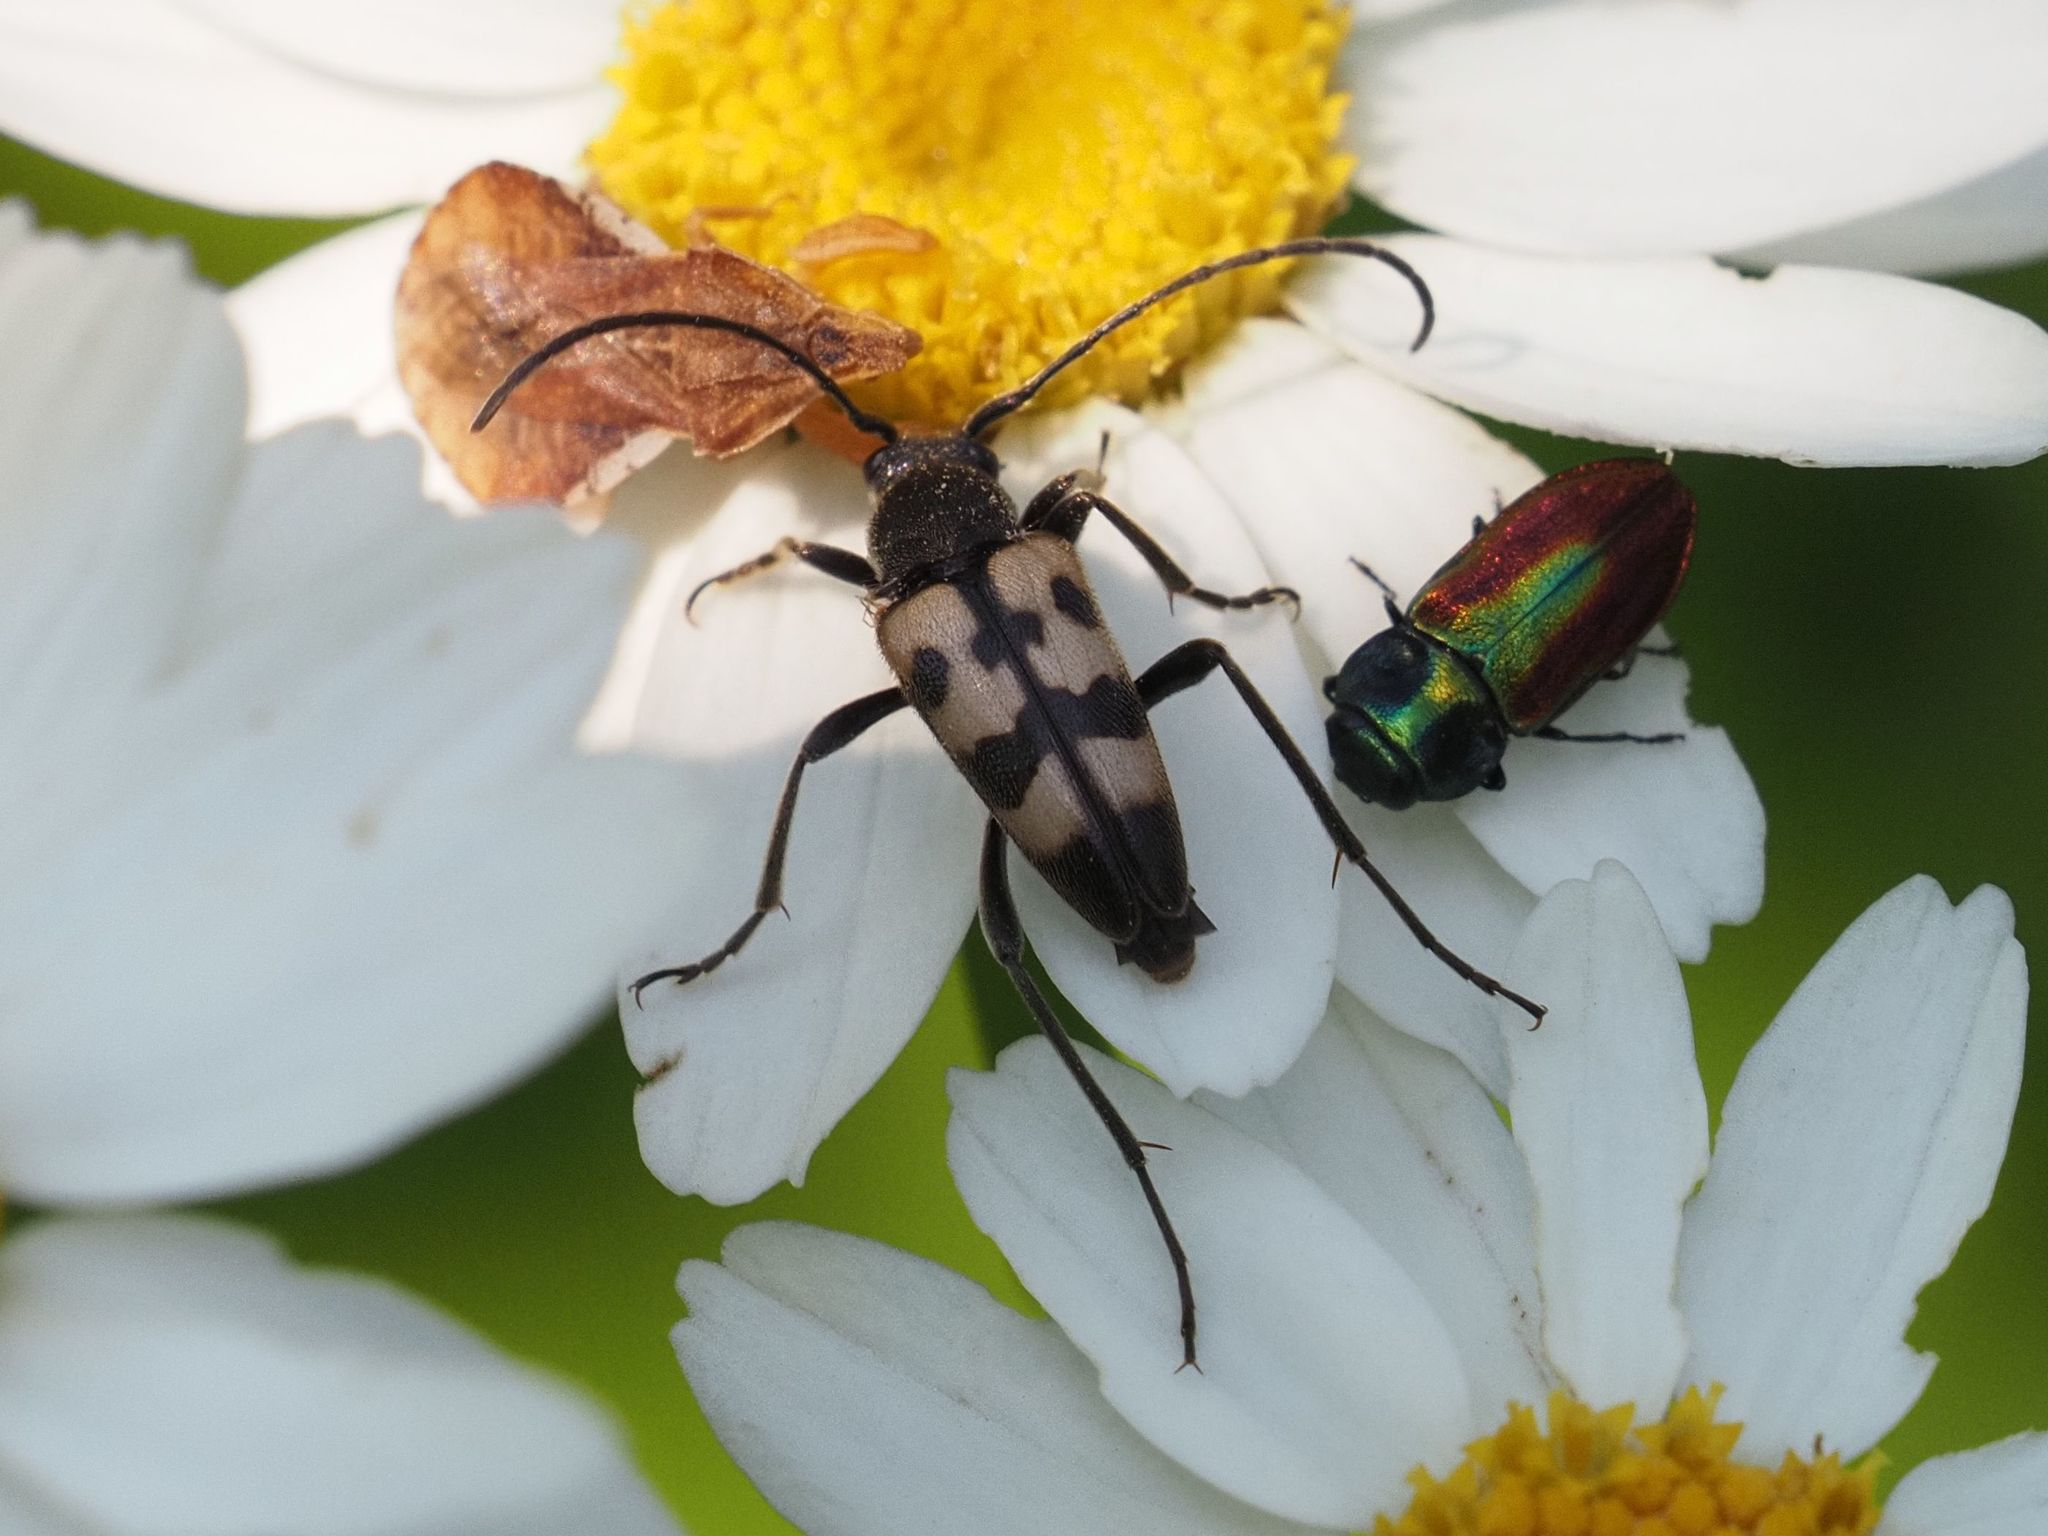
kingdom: Animalia
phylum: Arthropoda
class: Insecta
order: Coleoptera
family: Cerambycidae
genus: Pachytodes
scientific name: Pachytodes
